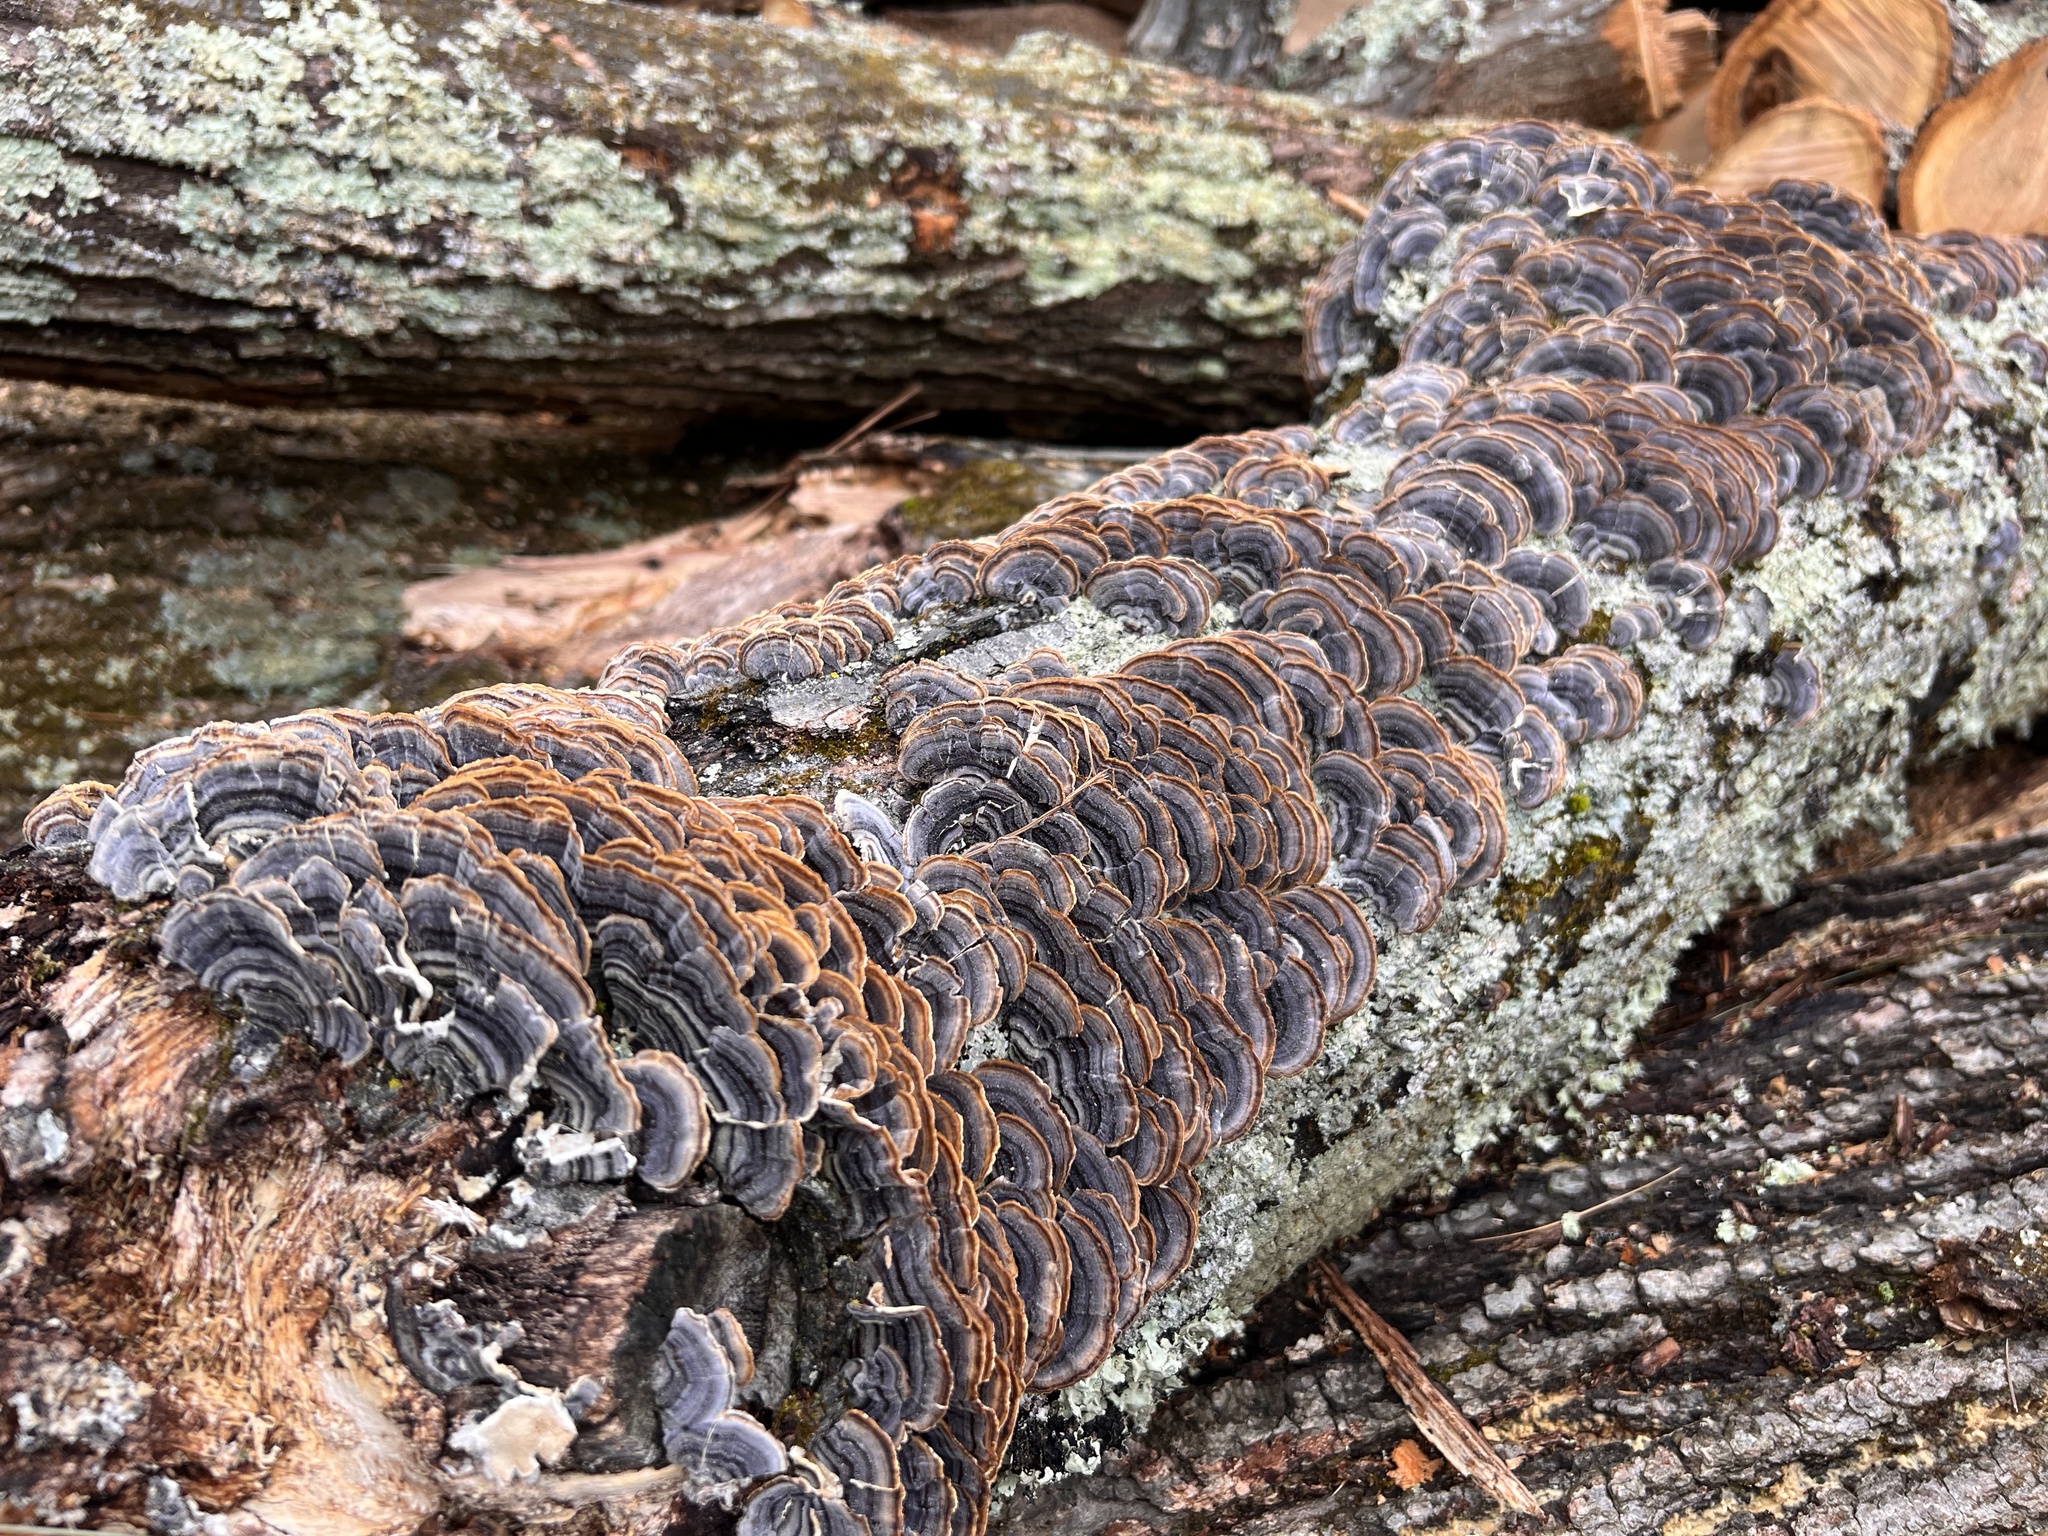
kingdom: Fungi
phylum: Basidiomycota
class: Agaricomycetes
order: Polyporales
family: Polyporaceae
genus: Trametes
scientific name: Trametes versicolor
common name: Turkeytail
